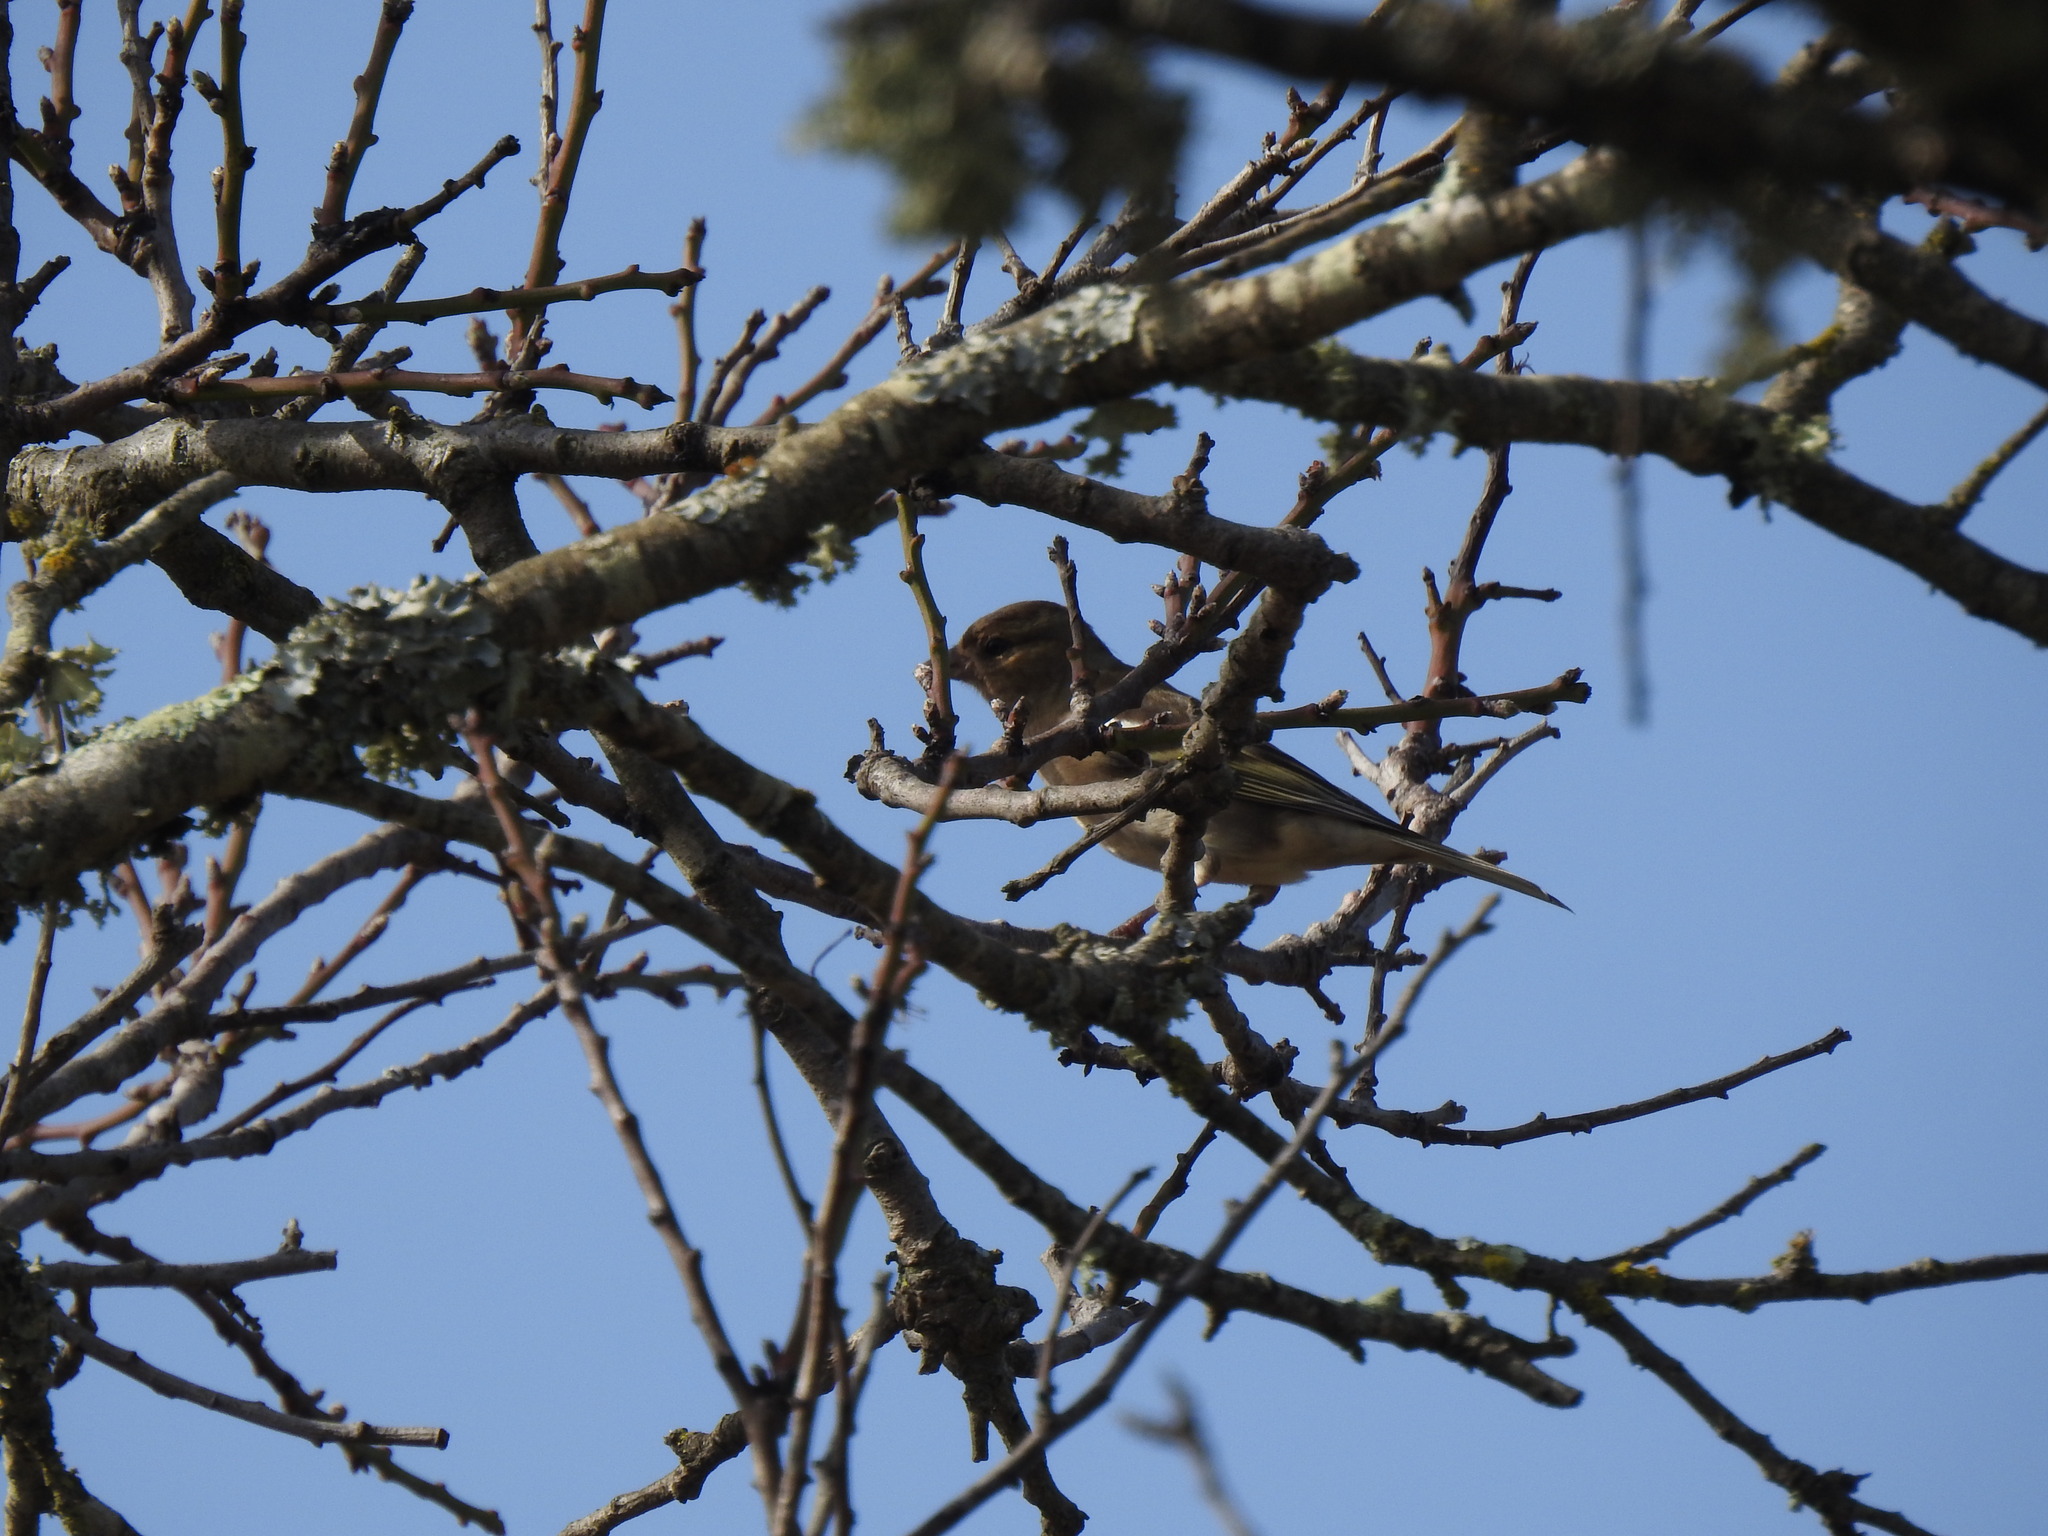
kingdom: Animalia
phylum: Chordata
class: Aves
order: Passeriformes
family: Fringillidae
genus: Fringilla
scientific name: Fringilla coelebs
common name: Common chaffinch
